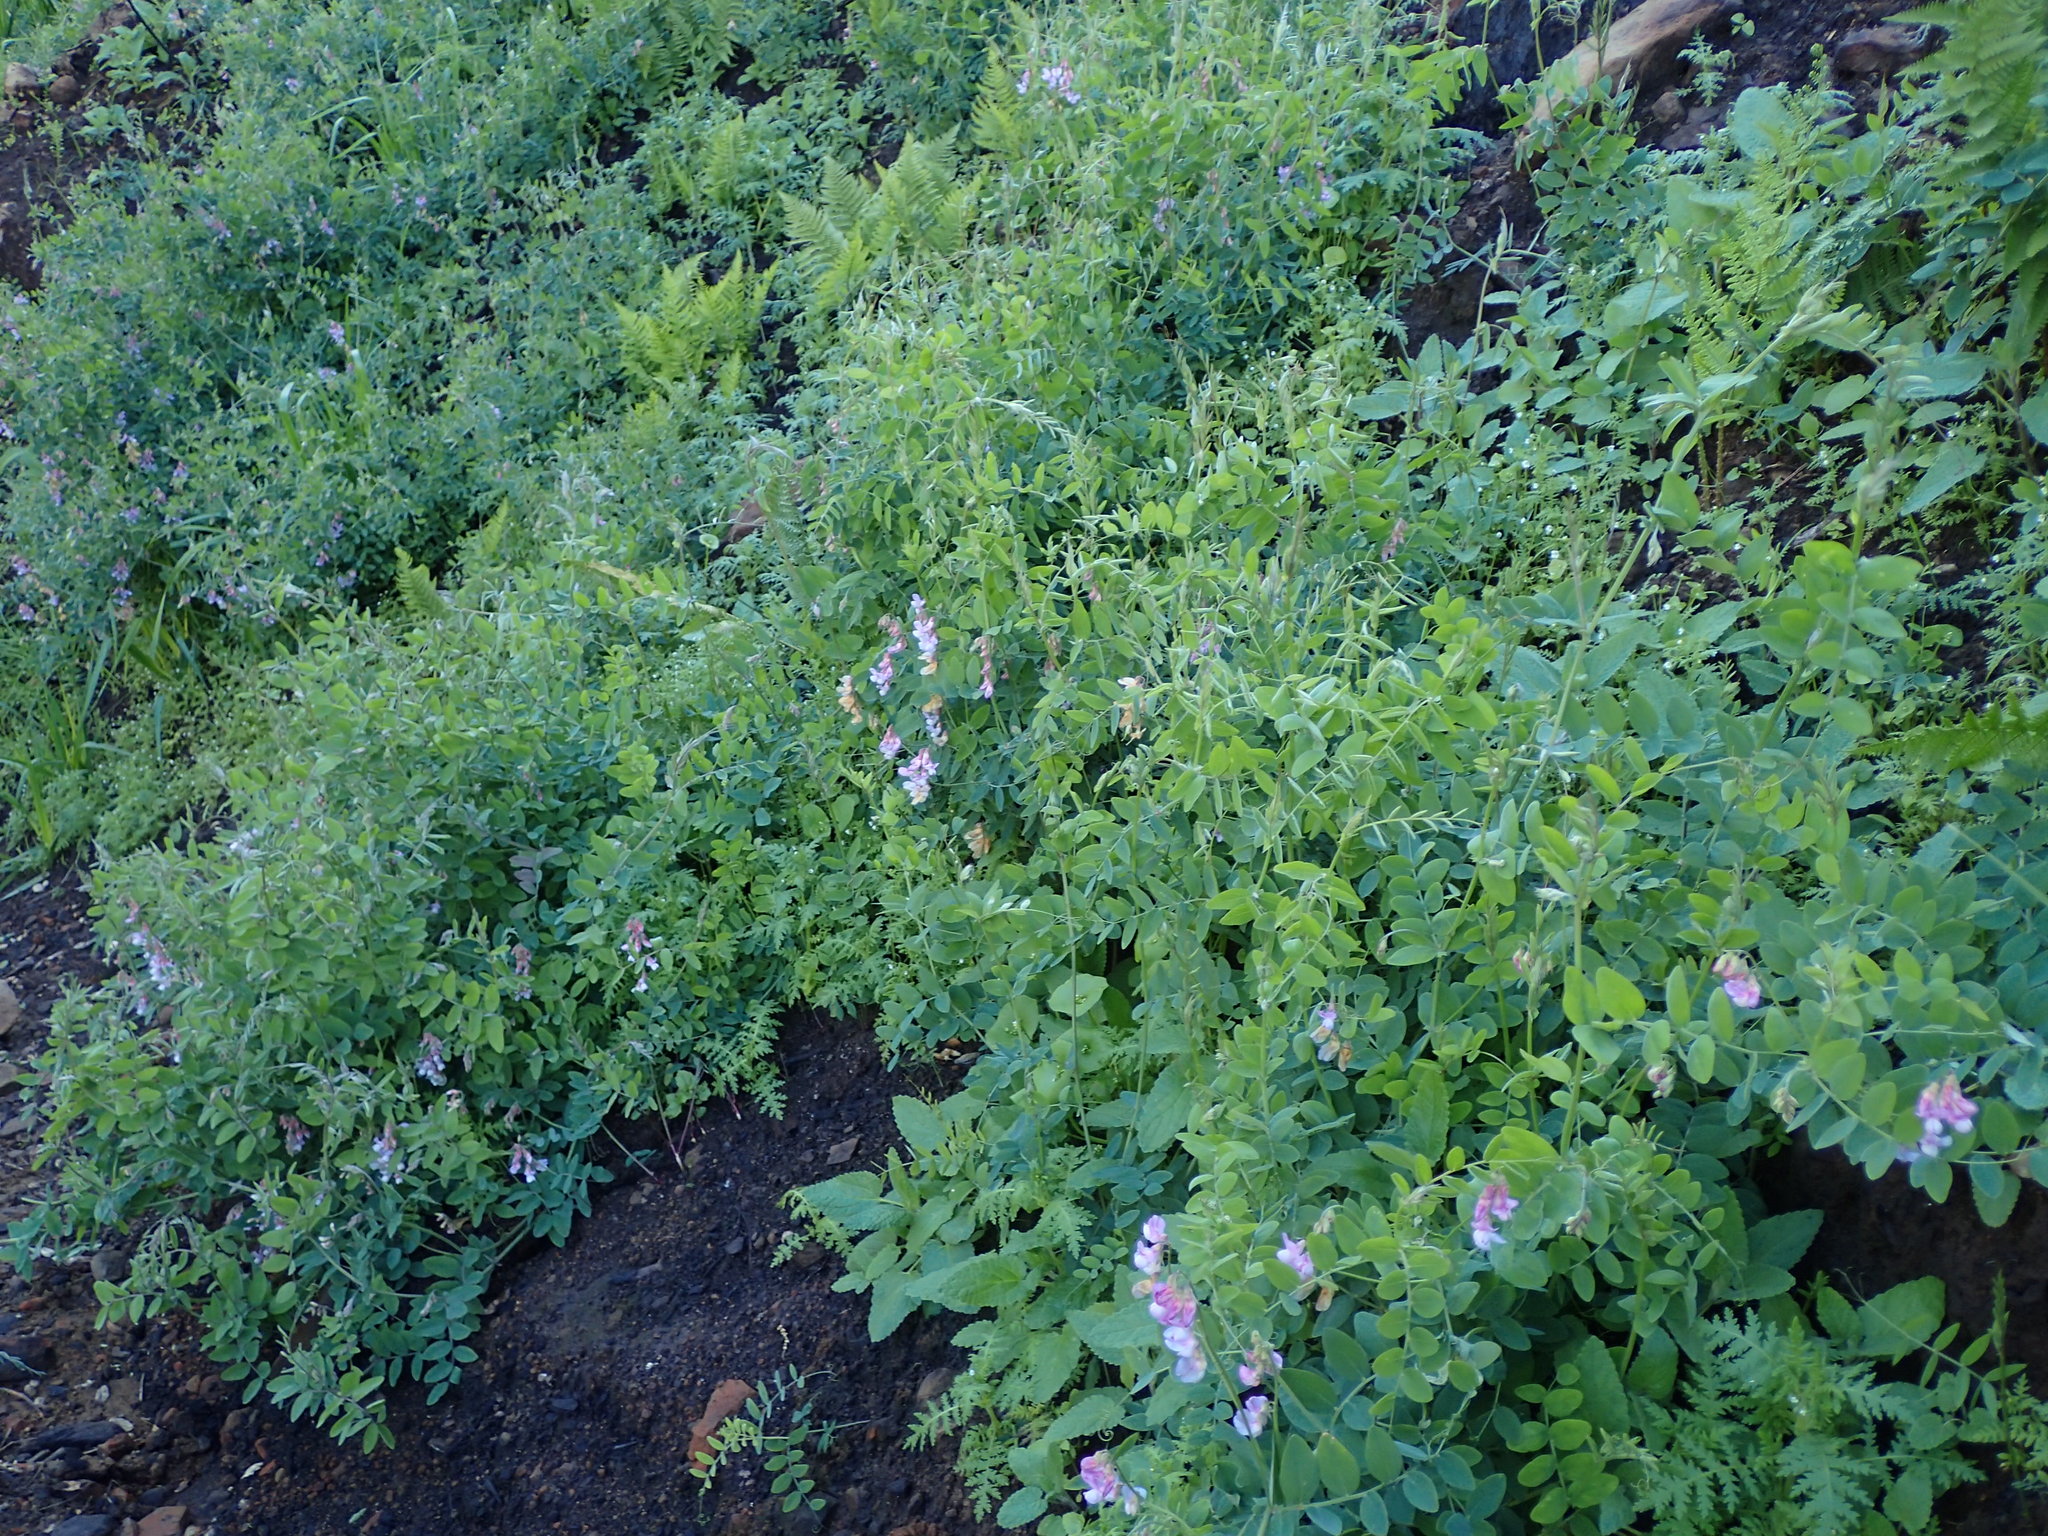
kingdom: Plantae
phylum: Tracheophyta
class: Magnoliopsida
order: Fabales
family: Fabaceae
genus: Lathyrus
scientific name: Lathyrus vestitus
